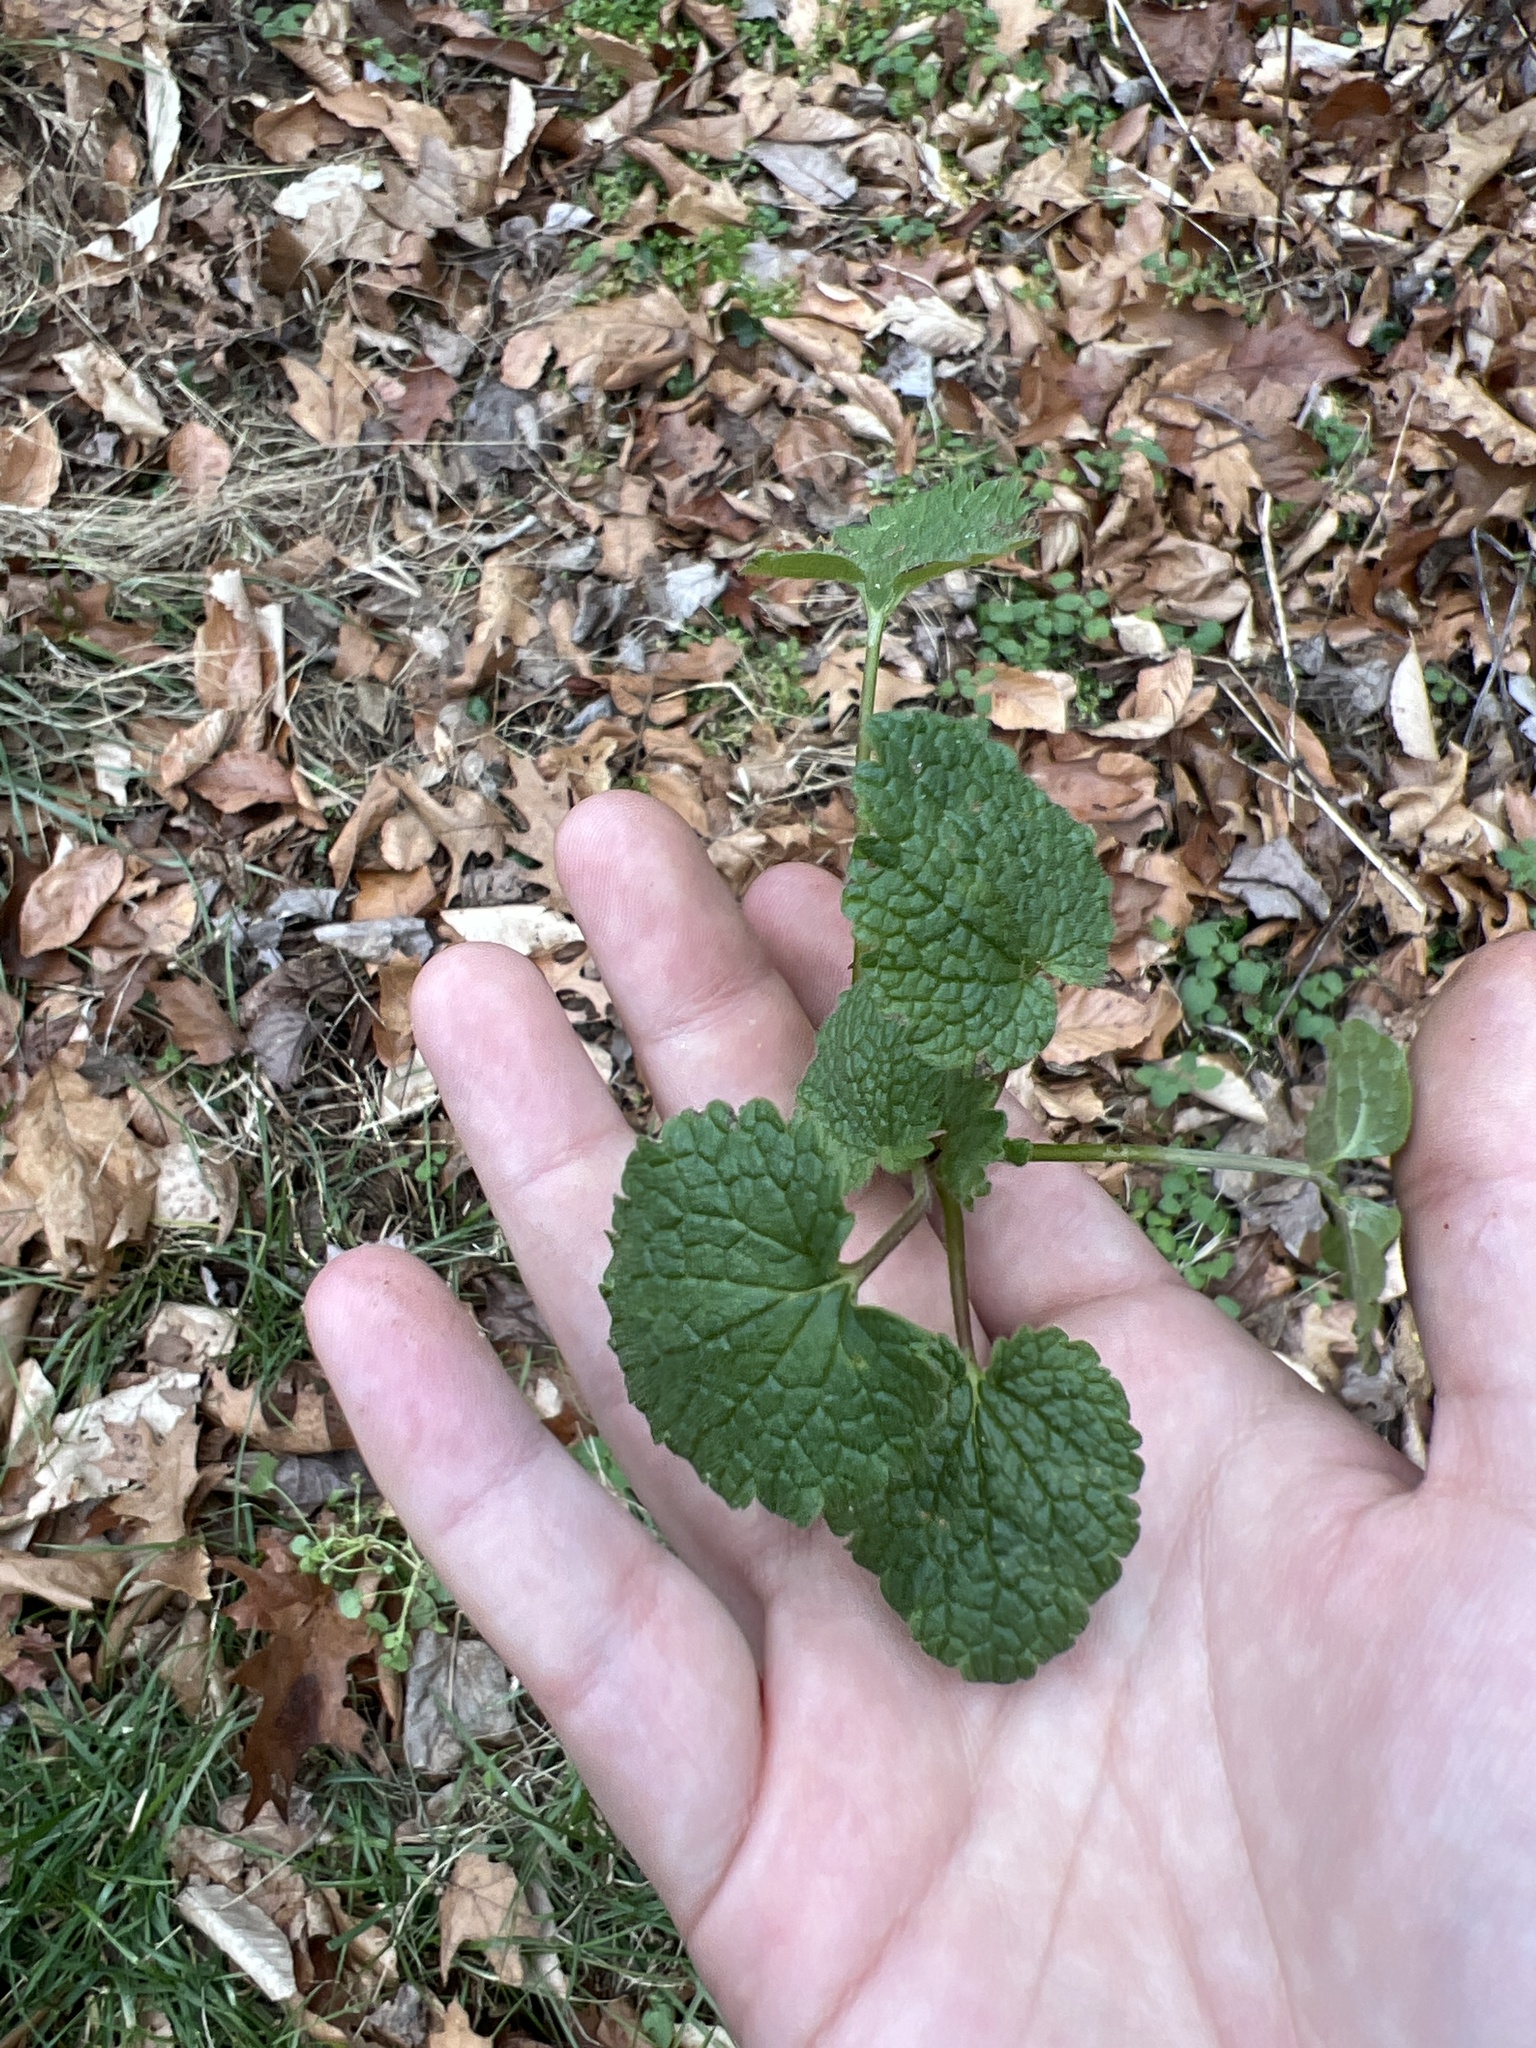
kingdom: Plantae
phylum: Tracheophyta
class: Magnoliopsida
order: Brassicales
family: Brassicaceae
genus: Alliaria
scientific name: Alliaria petiolata
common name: Garlic mustard
